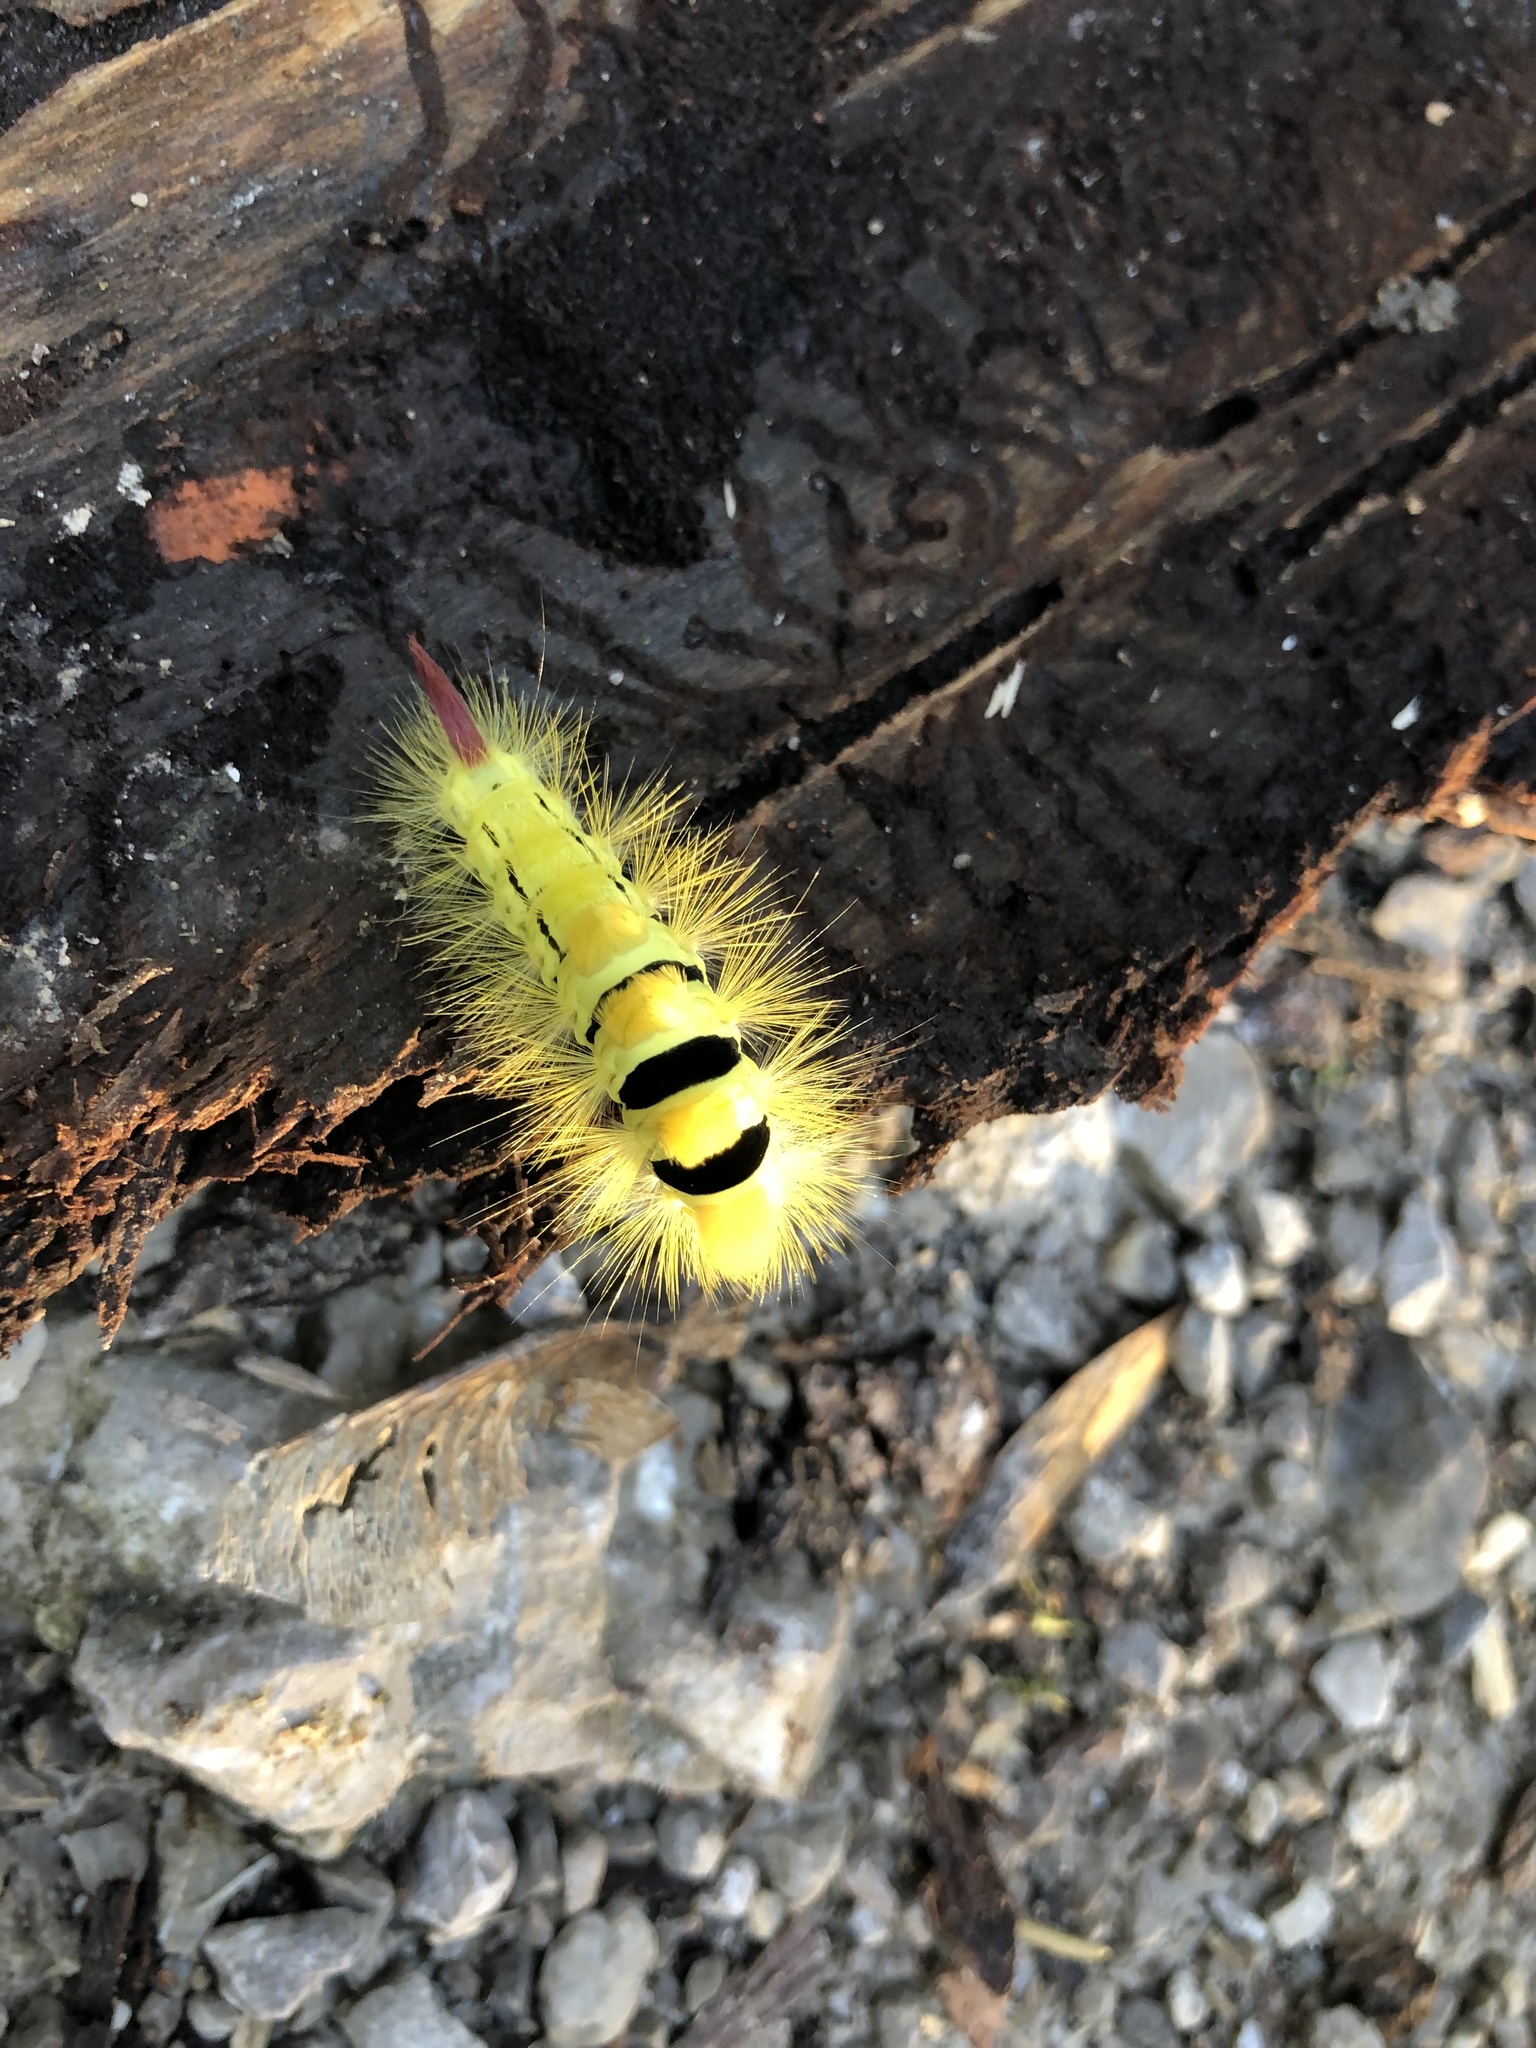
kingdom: Animalia
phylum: Arthropoda
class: Insecta
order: Lepidoptera
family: Erebidae
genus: Calliteara
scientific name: Calliteara pudibunda
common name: Pale tussock
